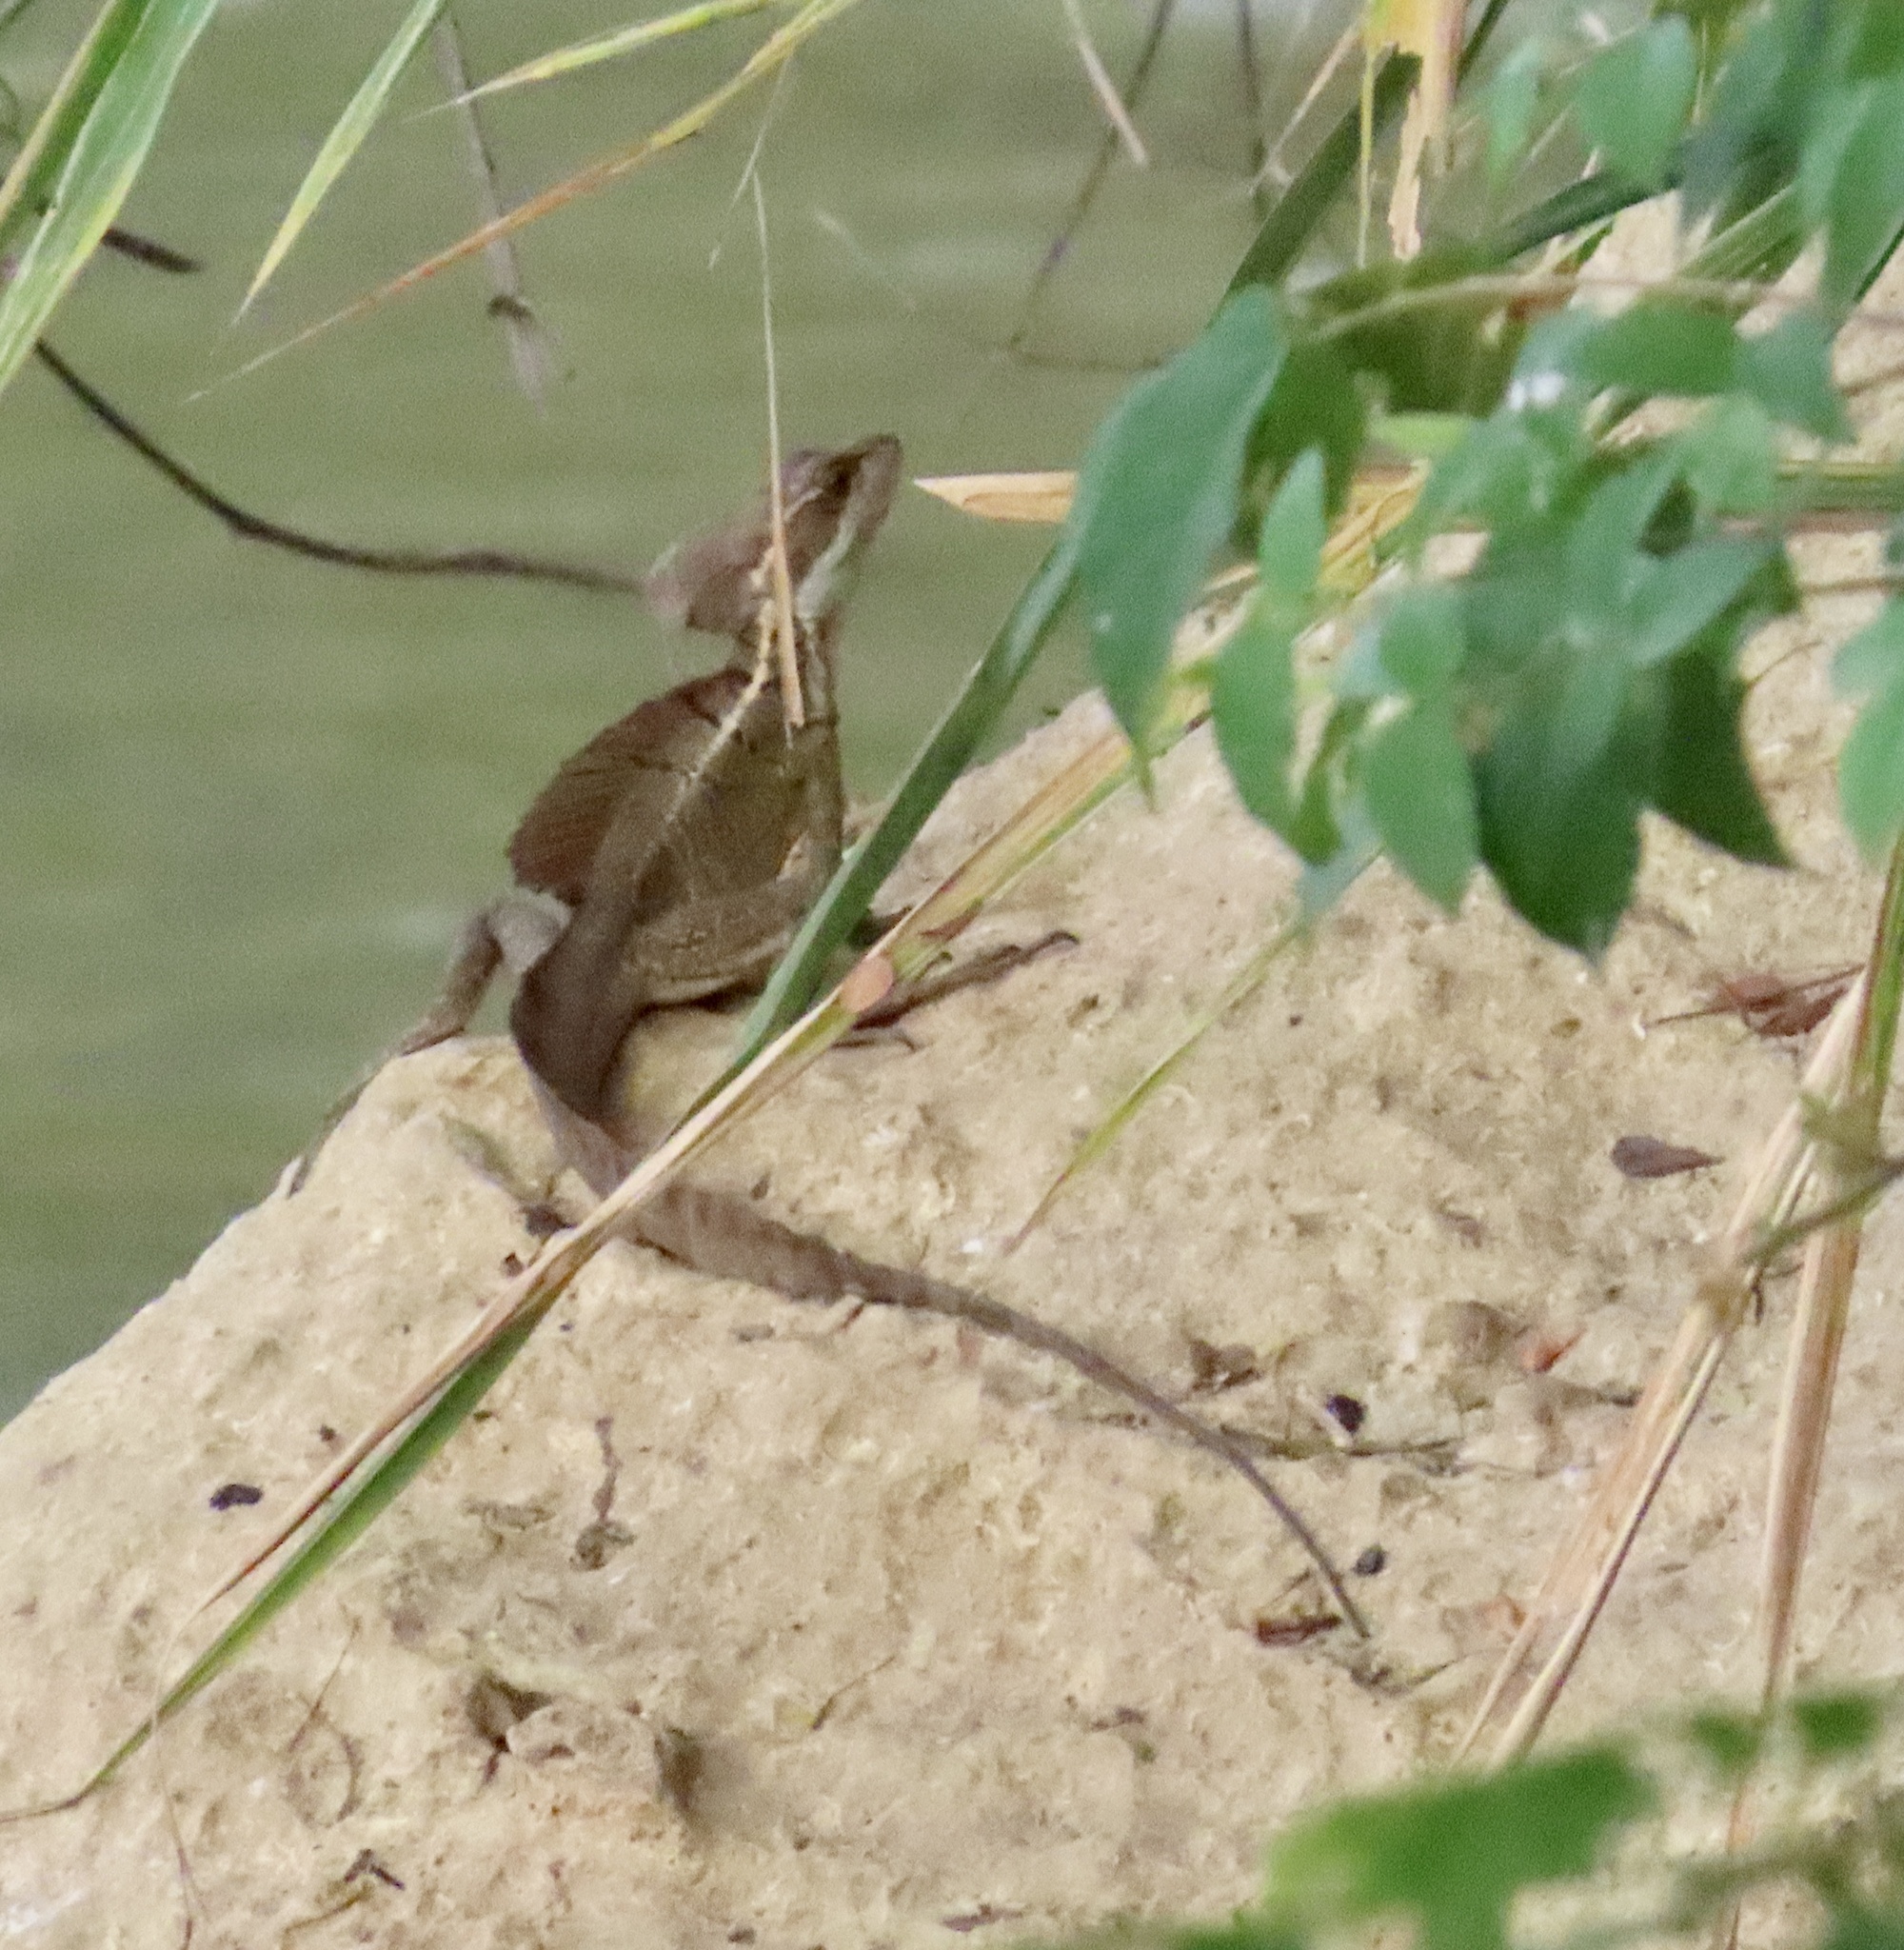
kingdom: Animalia
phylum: Chordata
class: Squamata
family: Corytophanidae
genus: Basiliscus
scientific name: Basiliscus basiliscus
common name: Common basilisk
